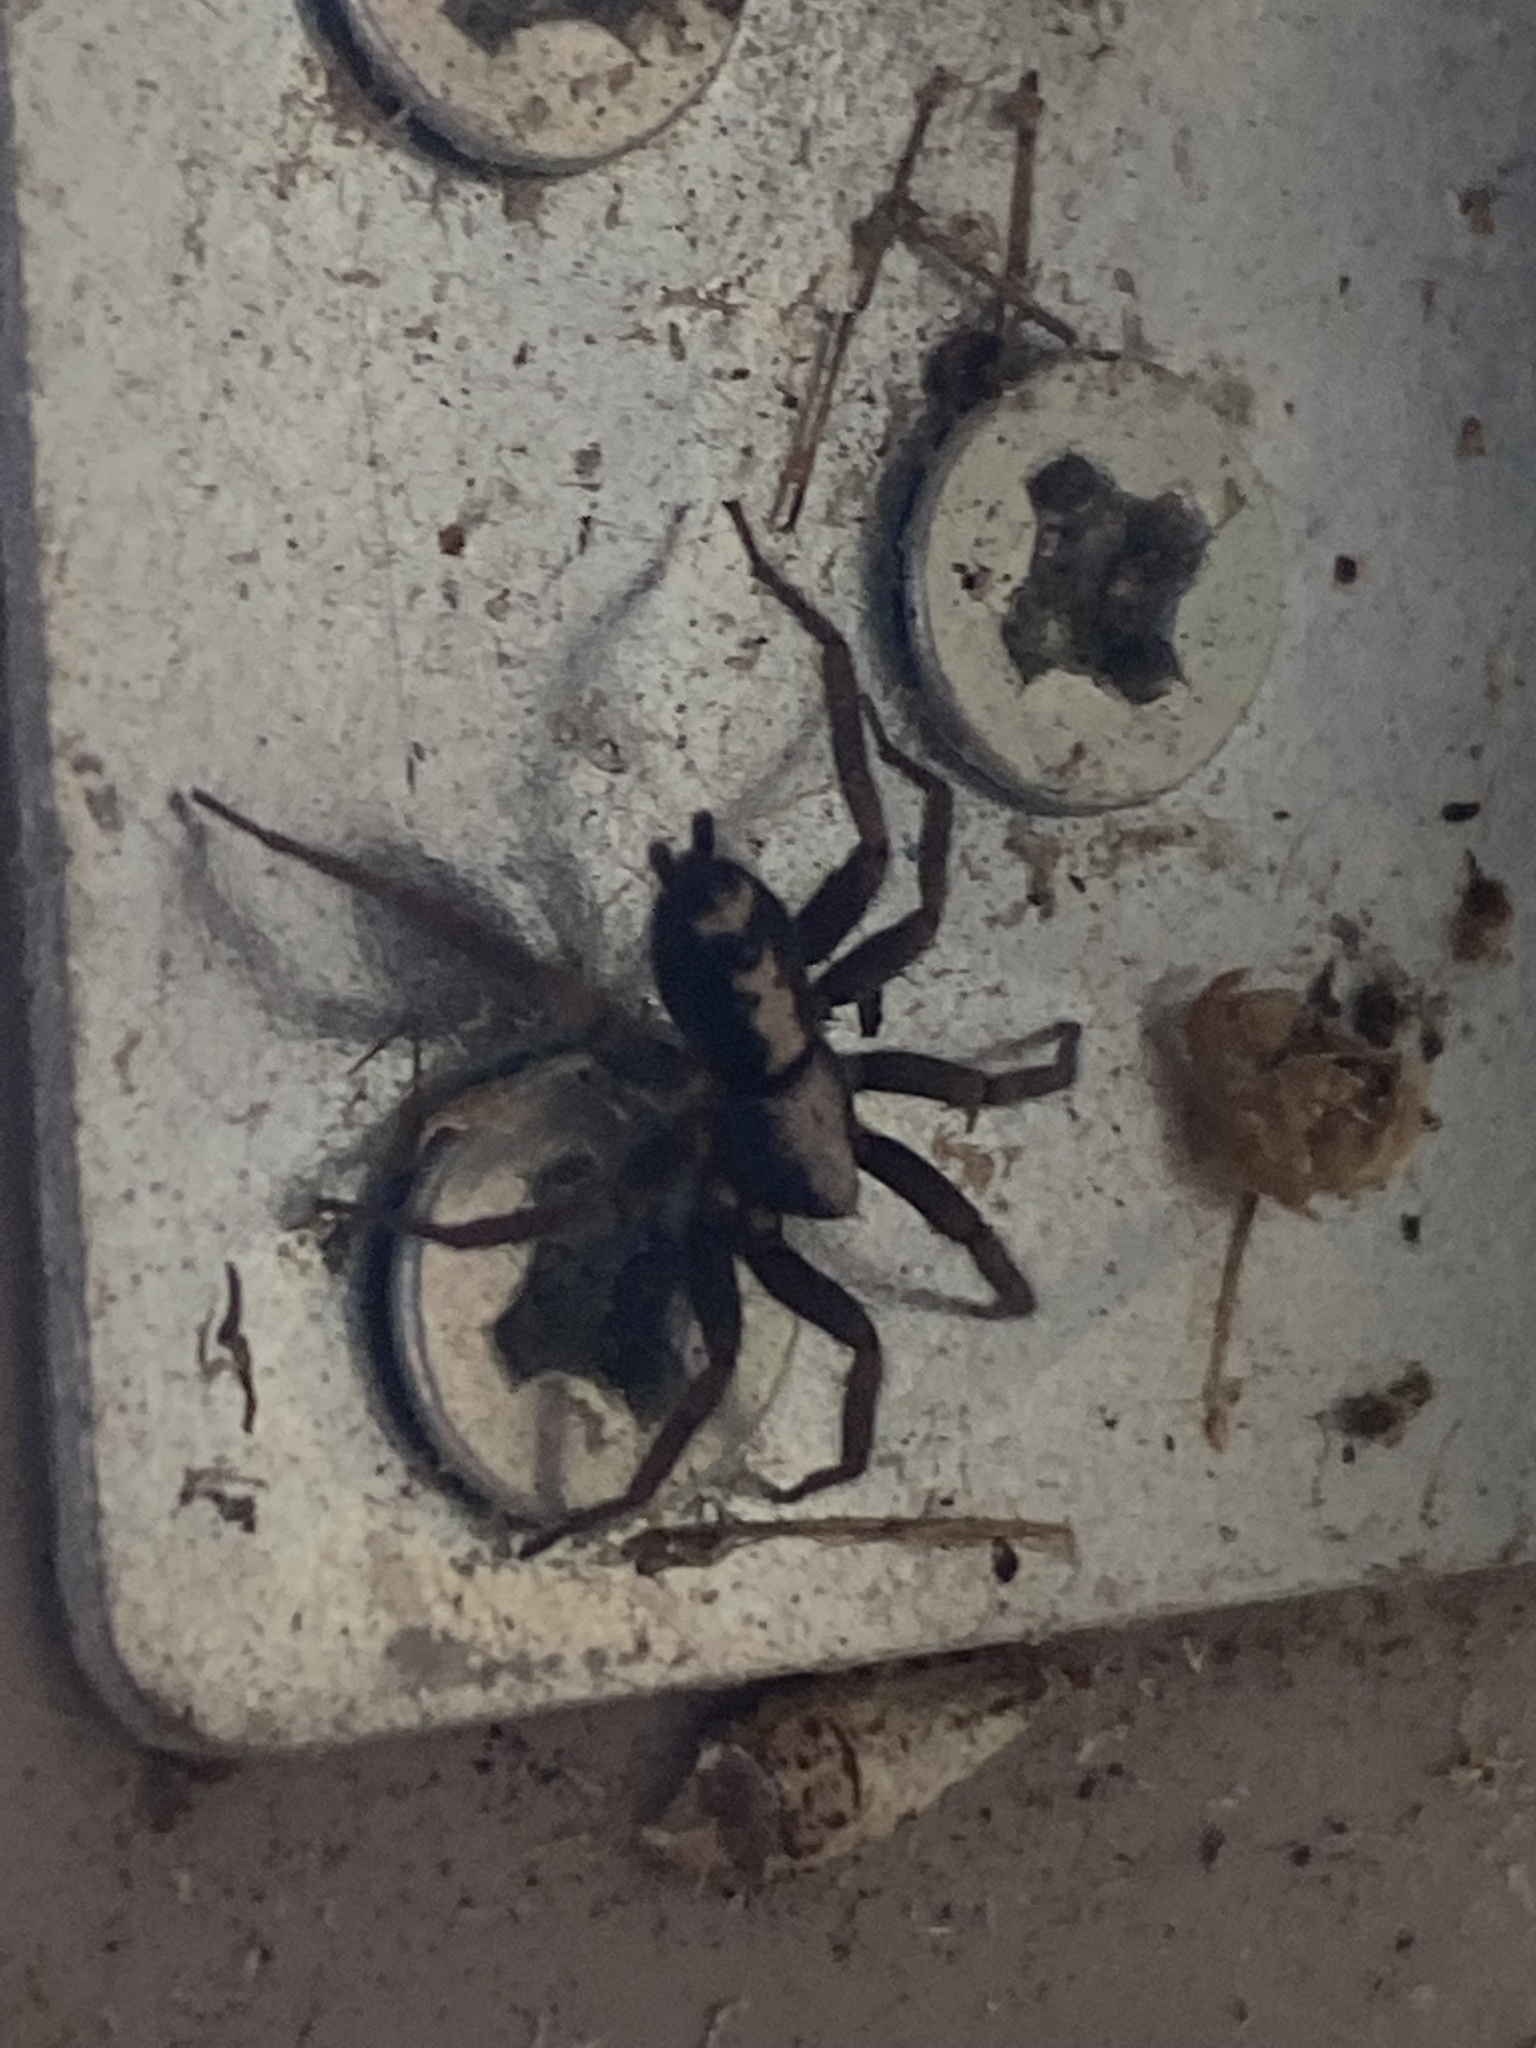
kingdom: Animalia
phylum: Arthropoda
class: Arachnida
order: Araneae
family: Gnaphosidae
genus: Herpyllus
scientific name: Herpyllus ecclesiasticus
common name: Eastern parson spider
